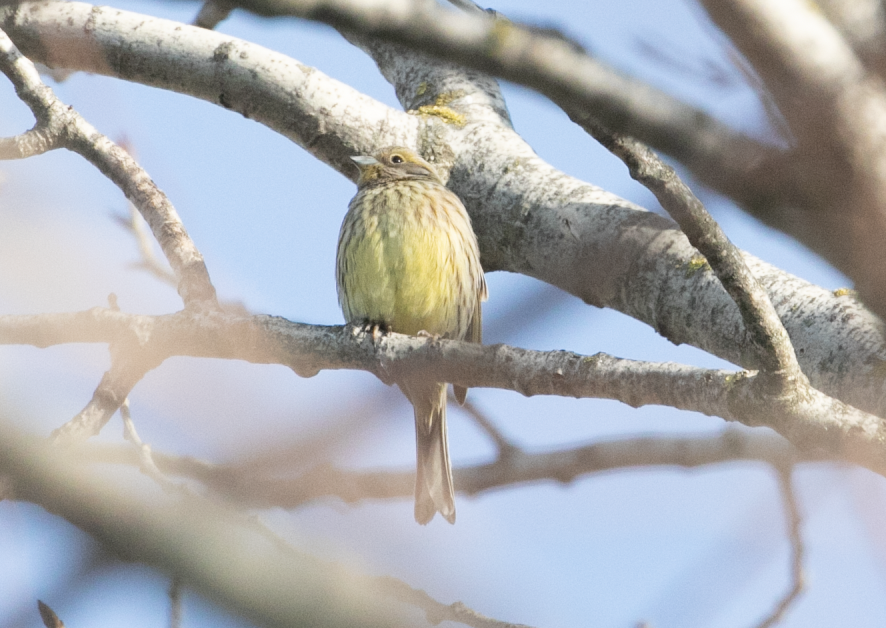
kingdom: Animalia
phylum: Chordata
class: Aves
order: Passeriformes
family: Emberizidae
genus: Emberiza
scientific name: Emberiza citrinella
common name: Yellowhammer
